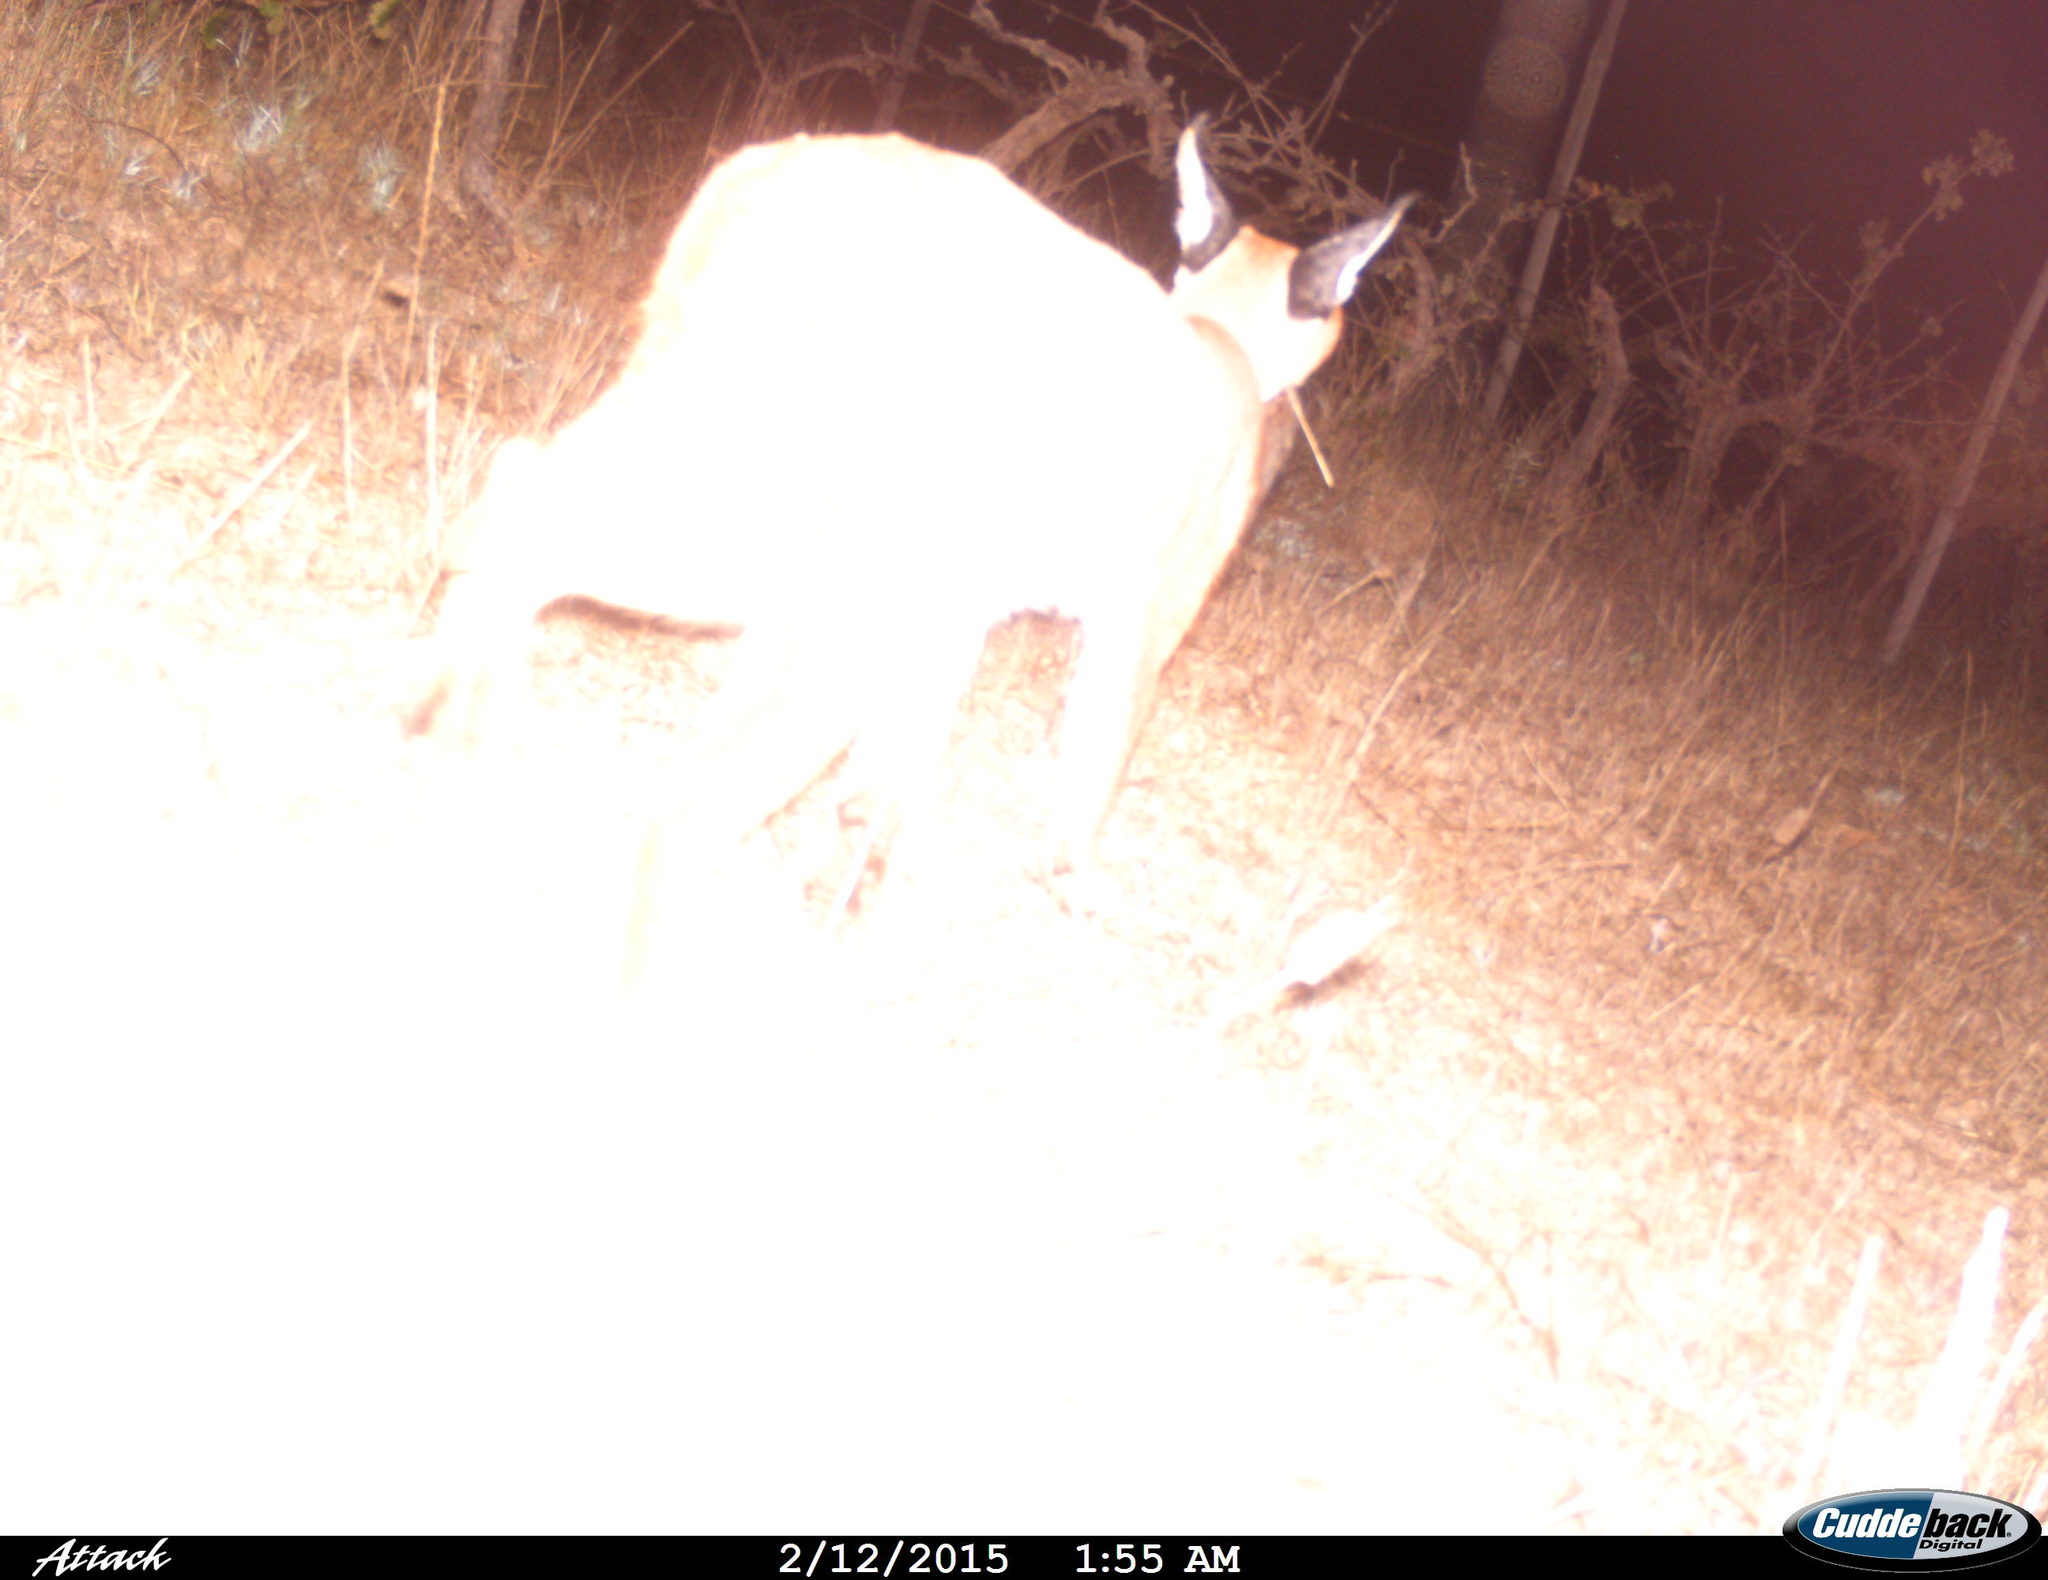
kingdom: Animalia
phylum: Chordata
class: Mammalia
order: Carnivora
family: Felidae
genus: Caracal
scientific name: Caracal caracal
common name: Caracal
